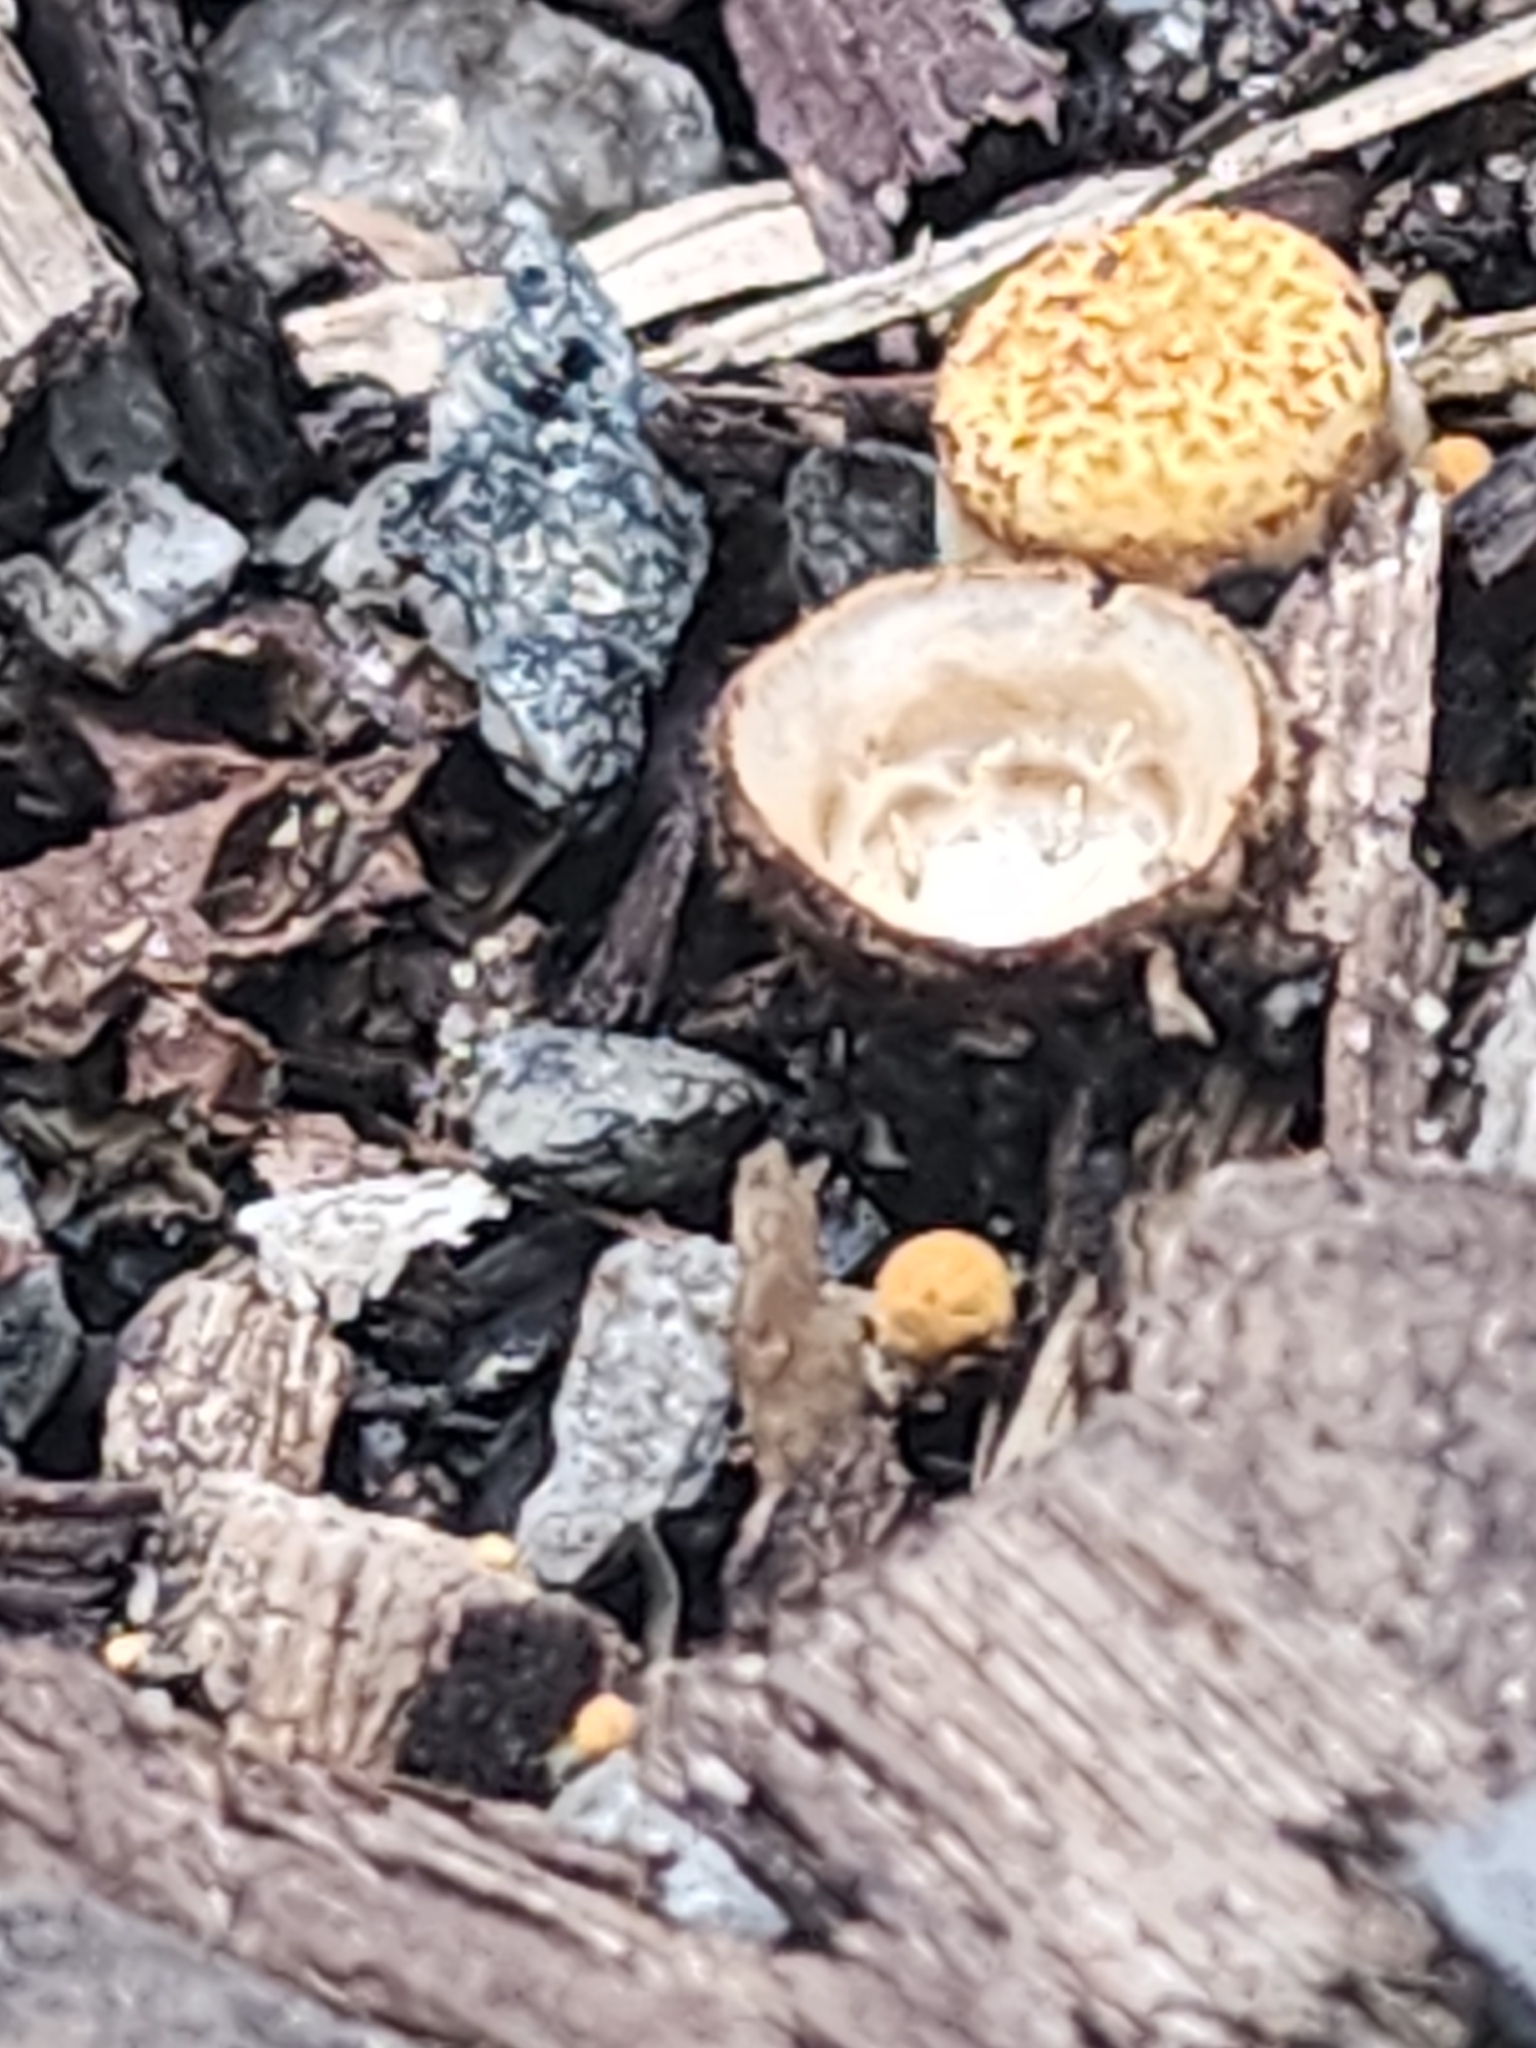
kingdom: Fungi
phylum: Basidiomycota
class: Agaricomycetes
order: Agaricales
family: Nidulariaceae
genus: Crucibulum
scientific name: Crucibulum laeve
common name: Common bird's nest
